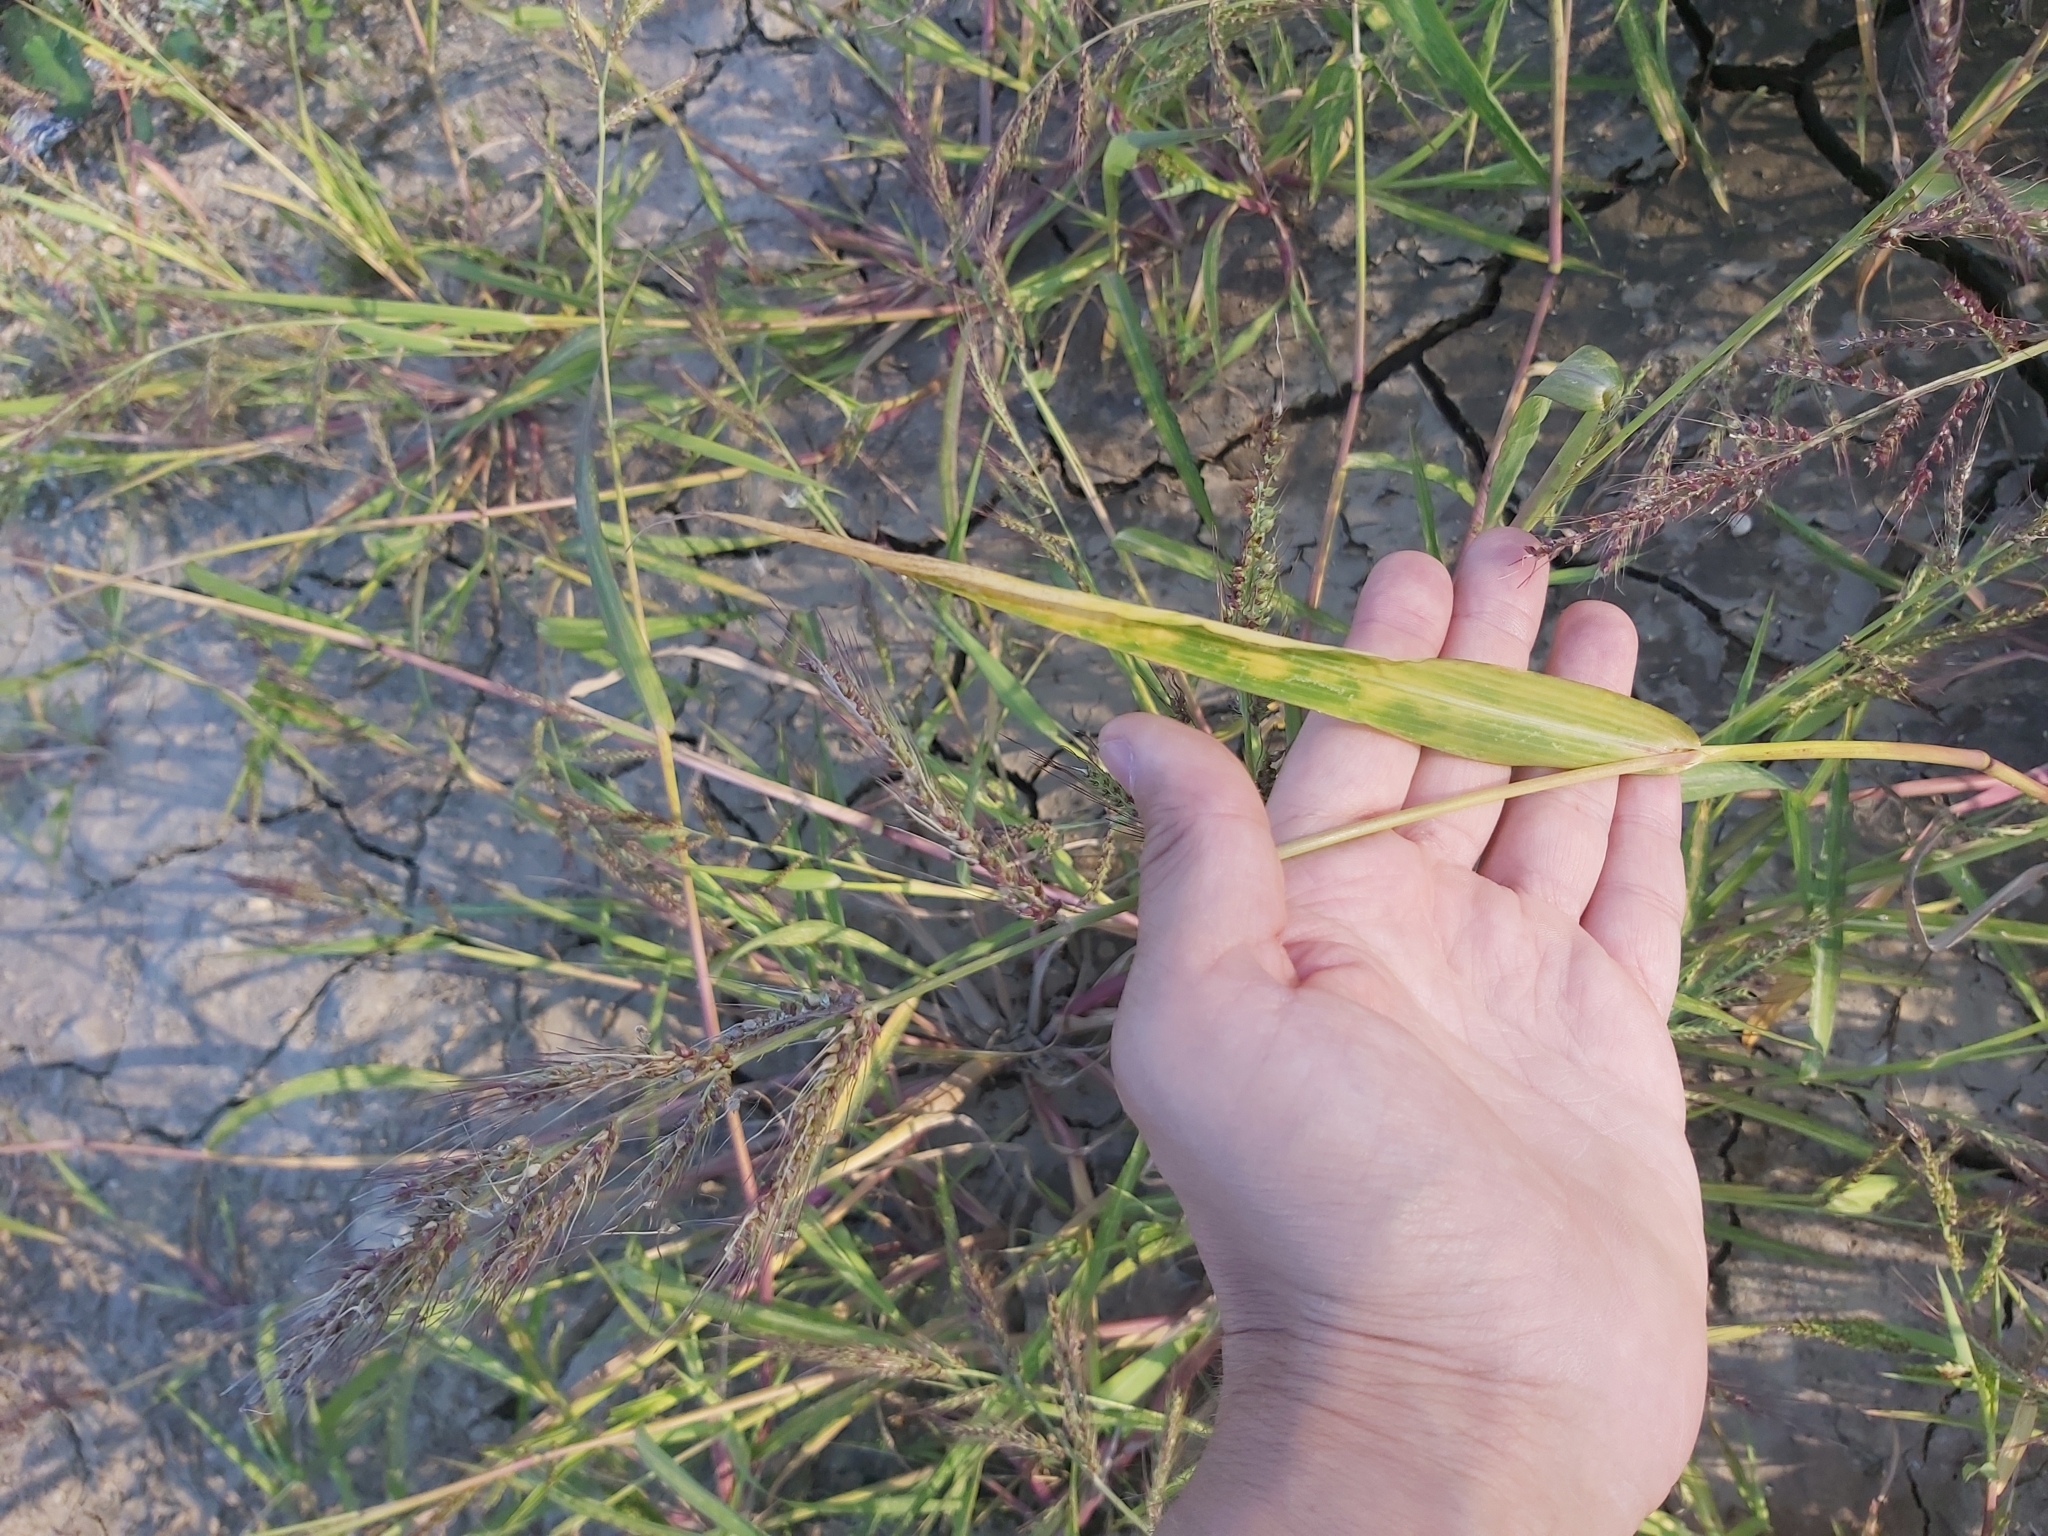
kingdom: Plantae
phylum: Tracheophyta
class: Liliopsida
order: Poales
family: Poaceae
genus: Echinochloa
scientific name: Echinochloa crus-galli
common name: Cockspur
